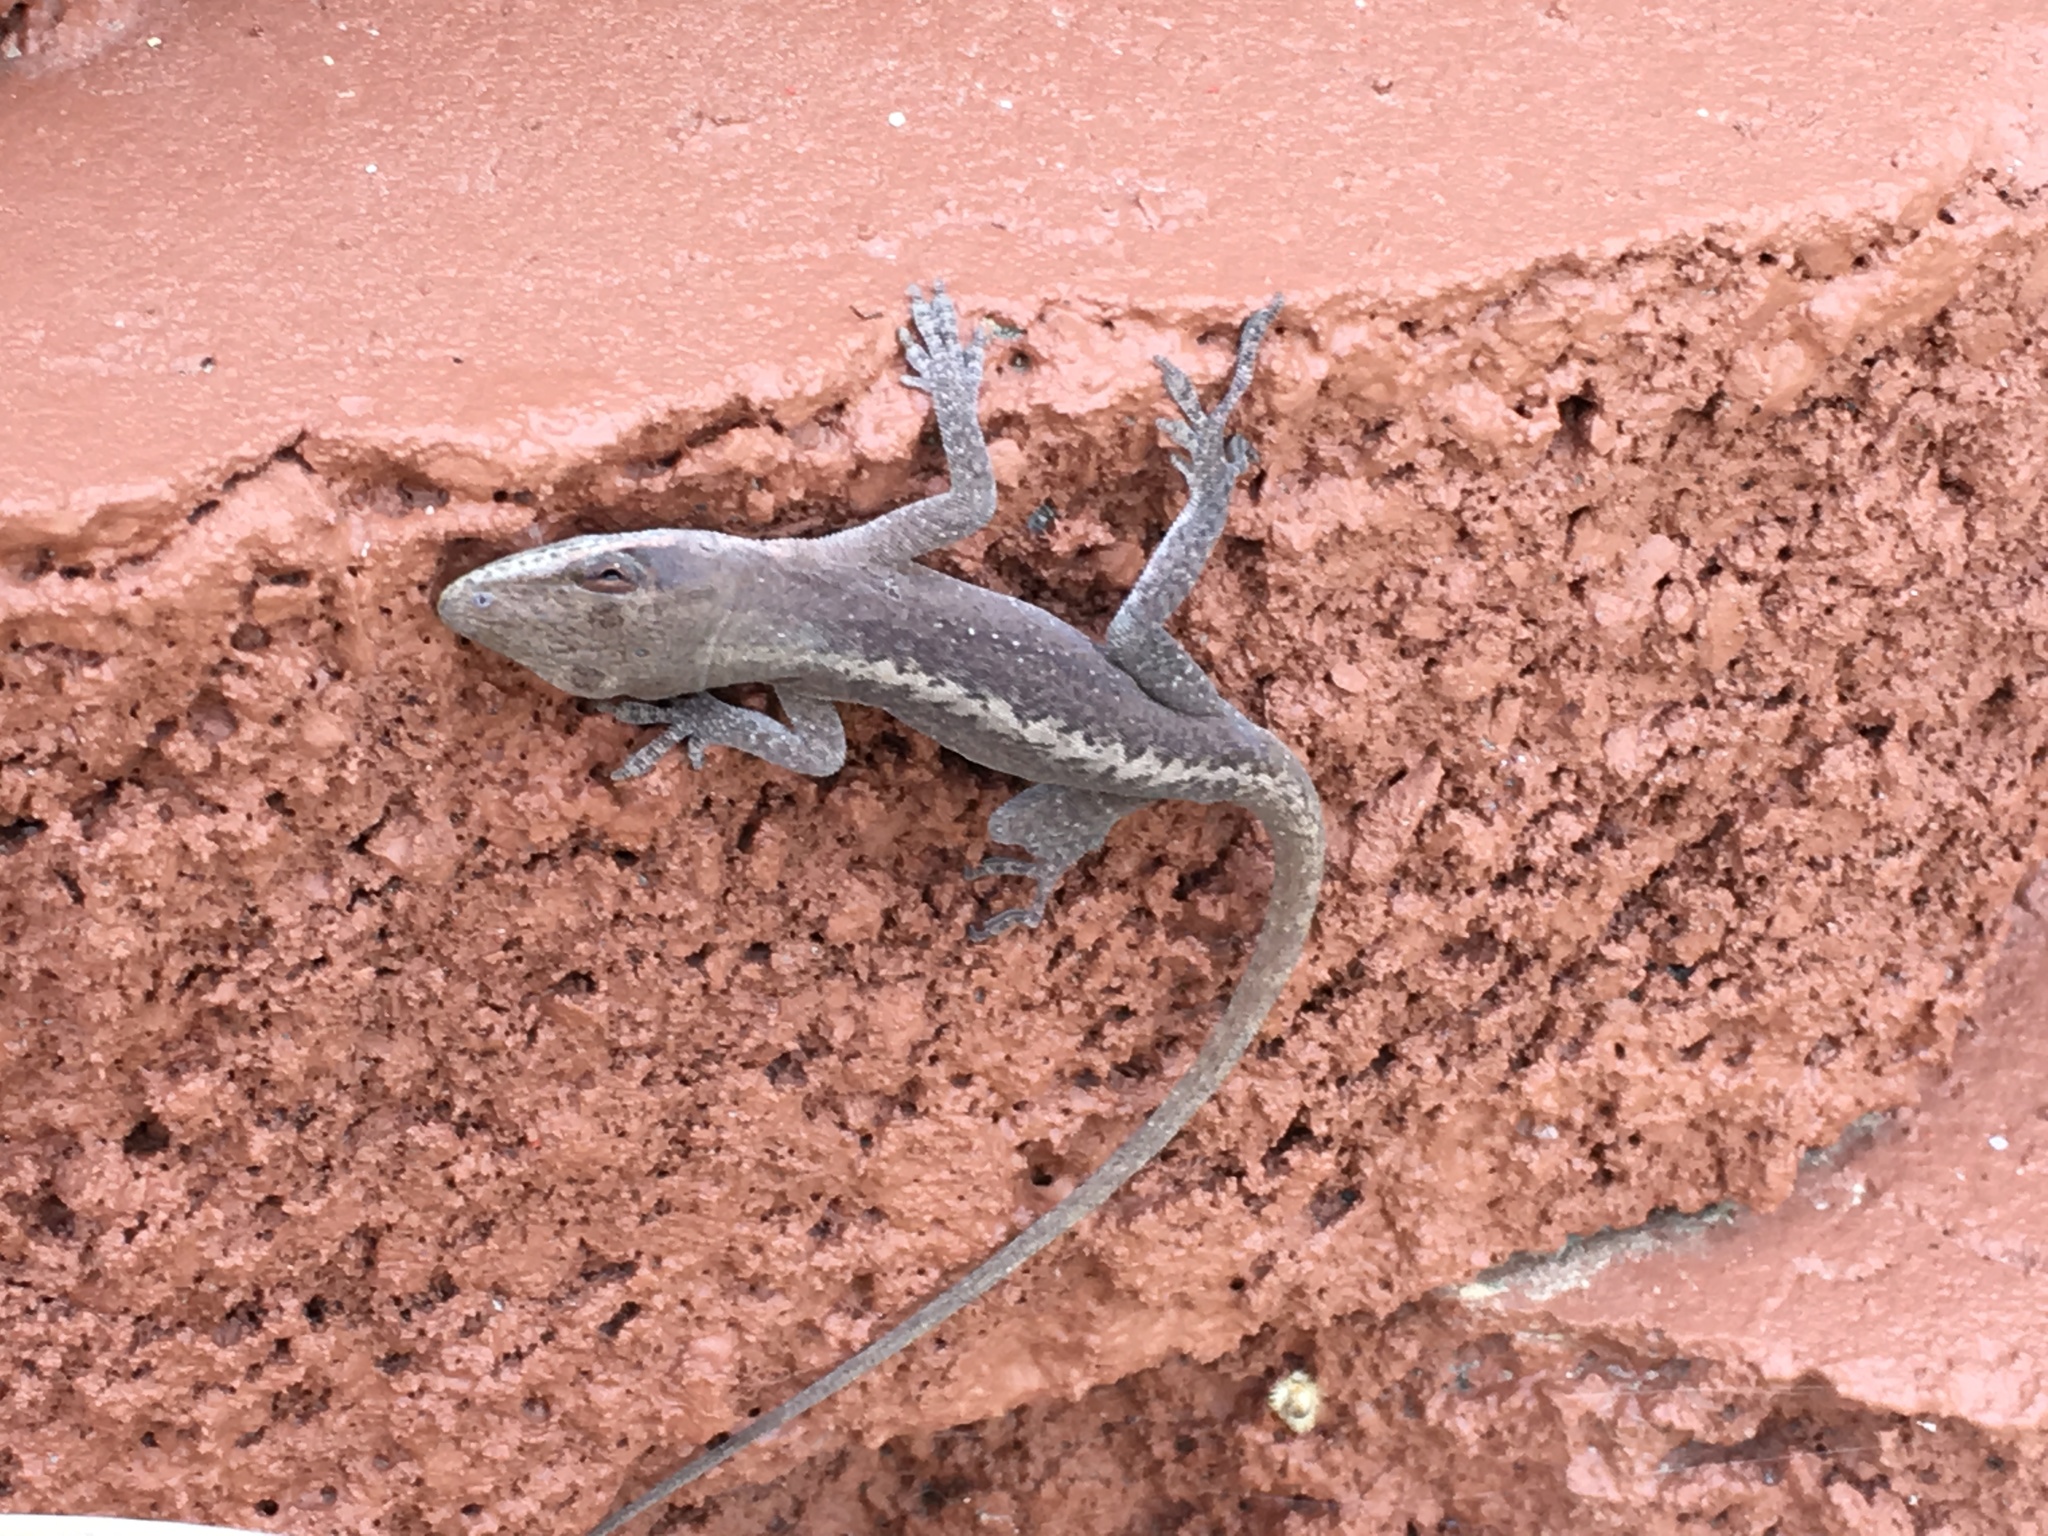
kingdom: Animalia
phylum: Chordata
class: Squamata
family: Dactyloidae
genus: Anolis
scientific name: Anolis carolinensis
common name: Green anole
